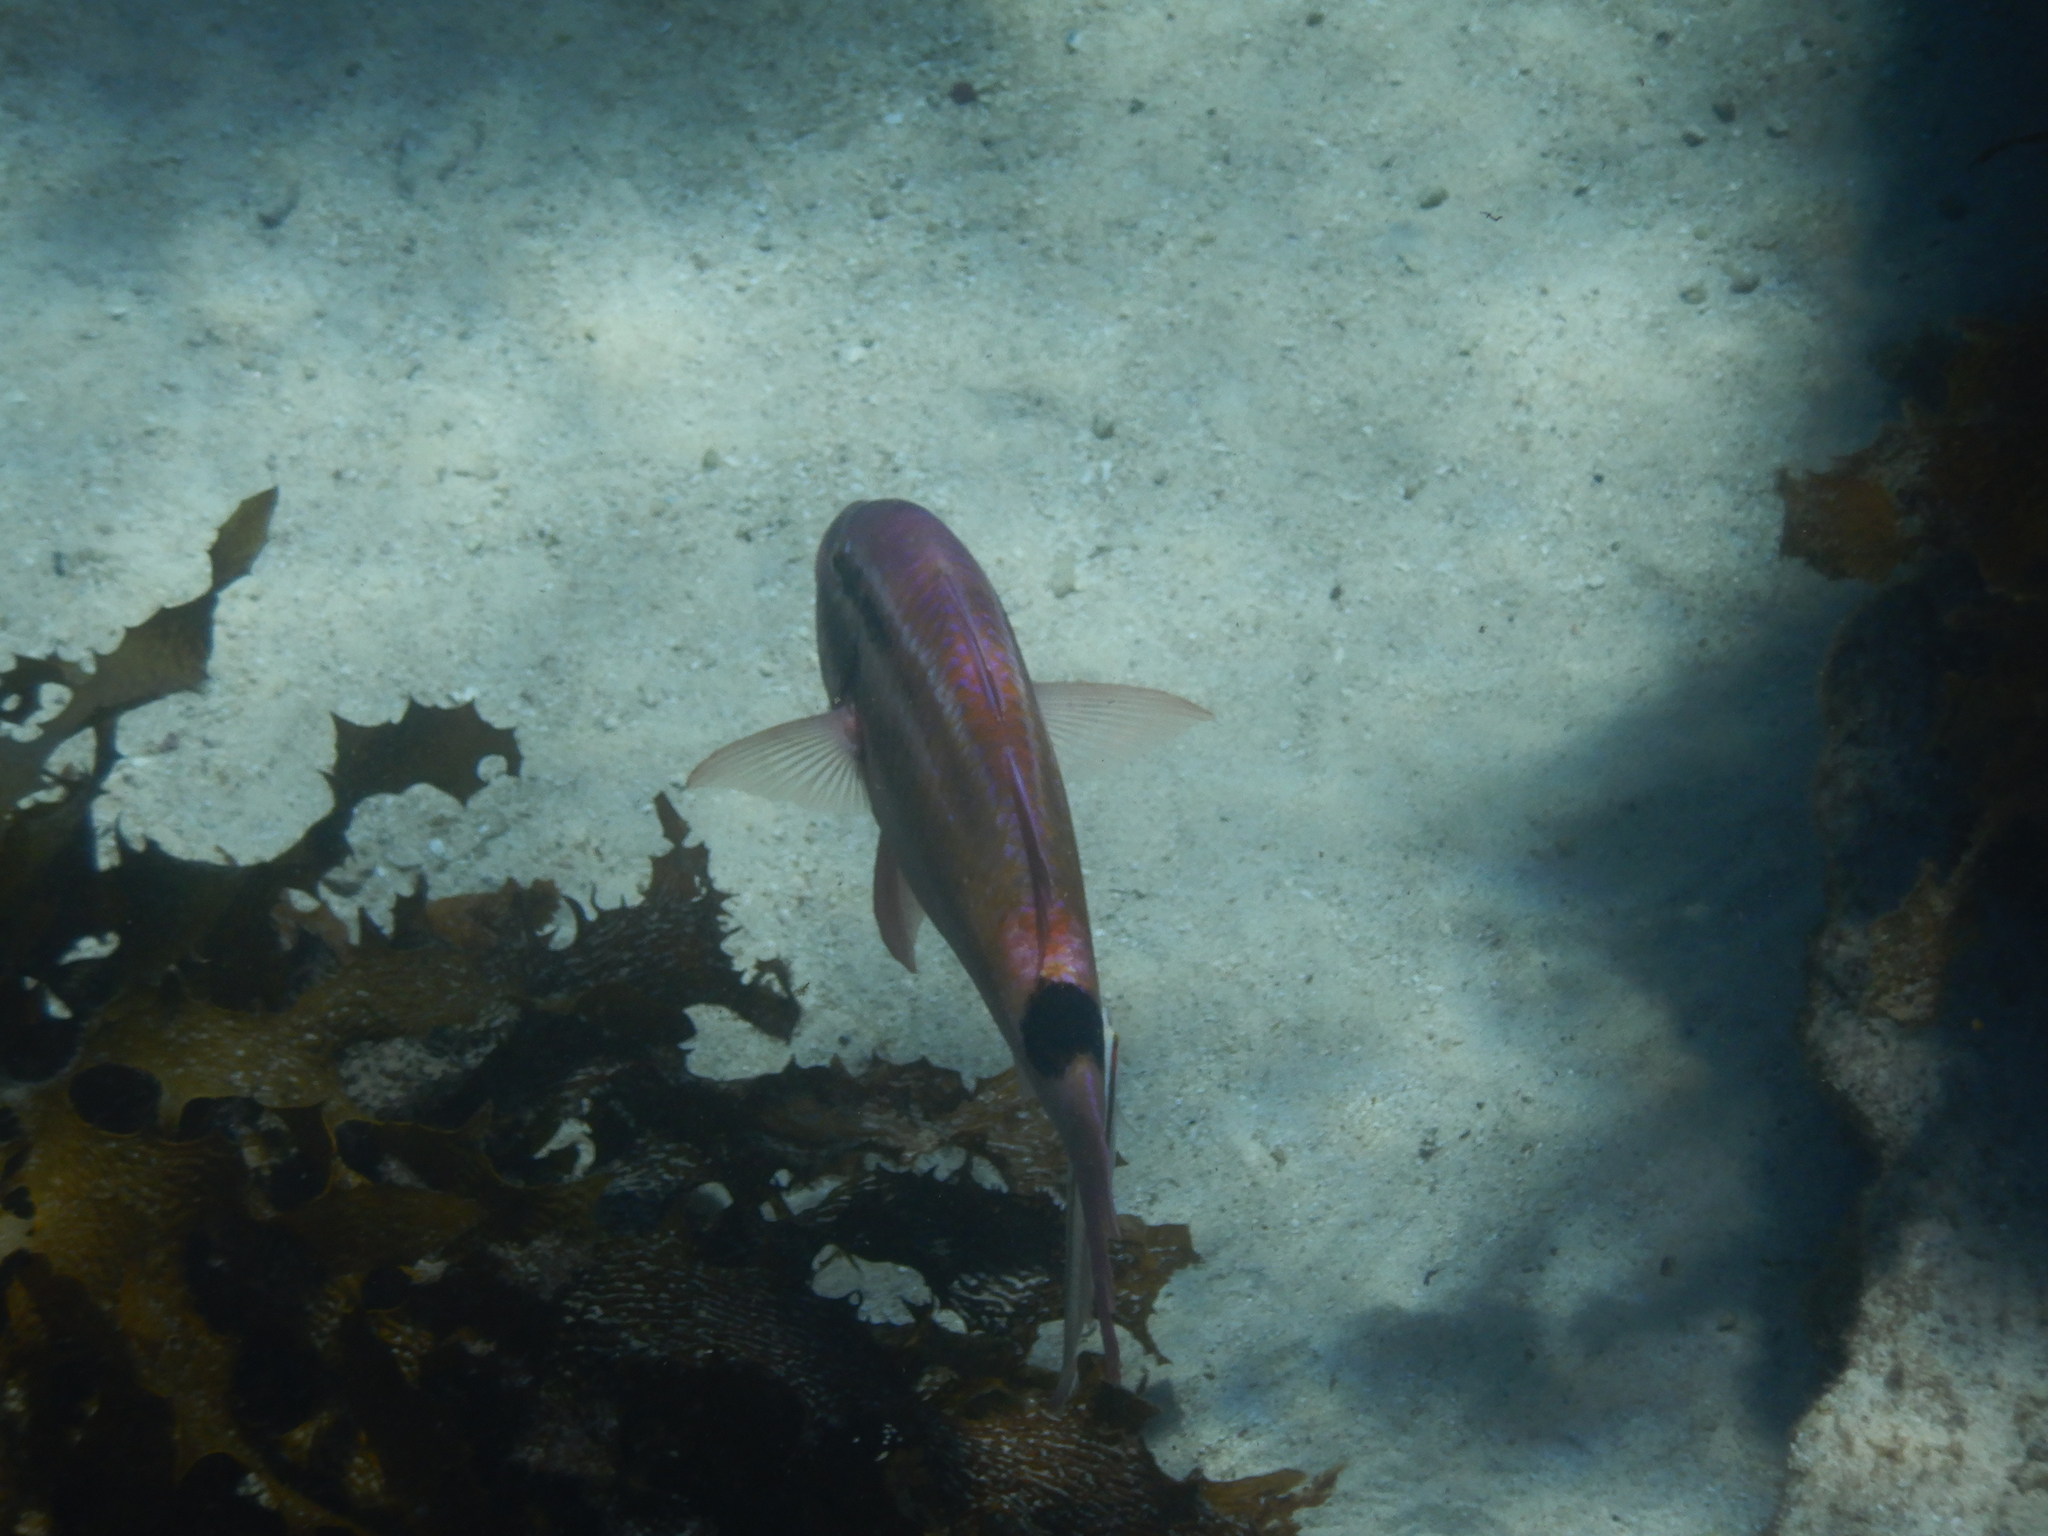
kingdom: Animalia
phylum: Chordata
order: Perciformes
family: Mullidae
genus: Parupeneus
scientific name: Parupeneus spilurus
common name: Blackspot goatfish
